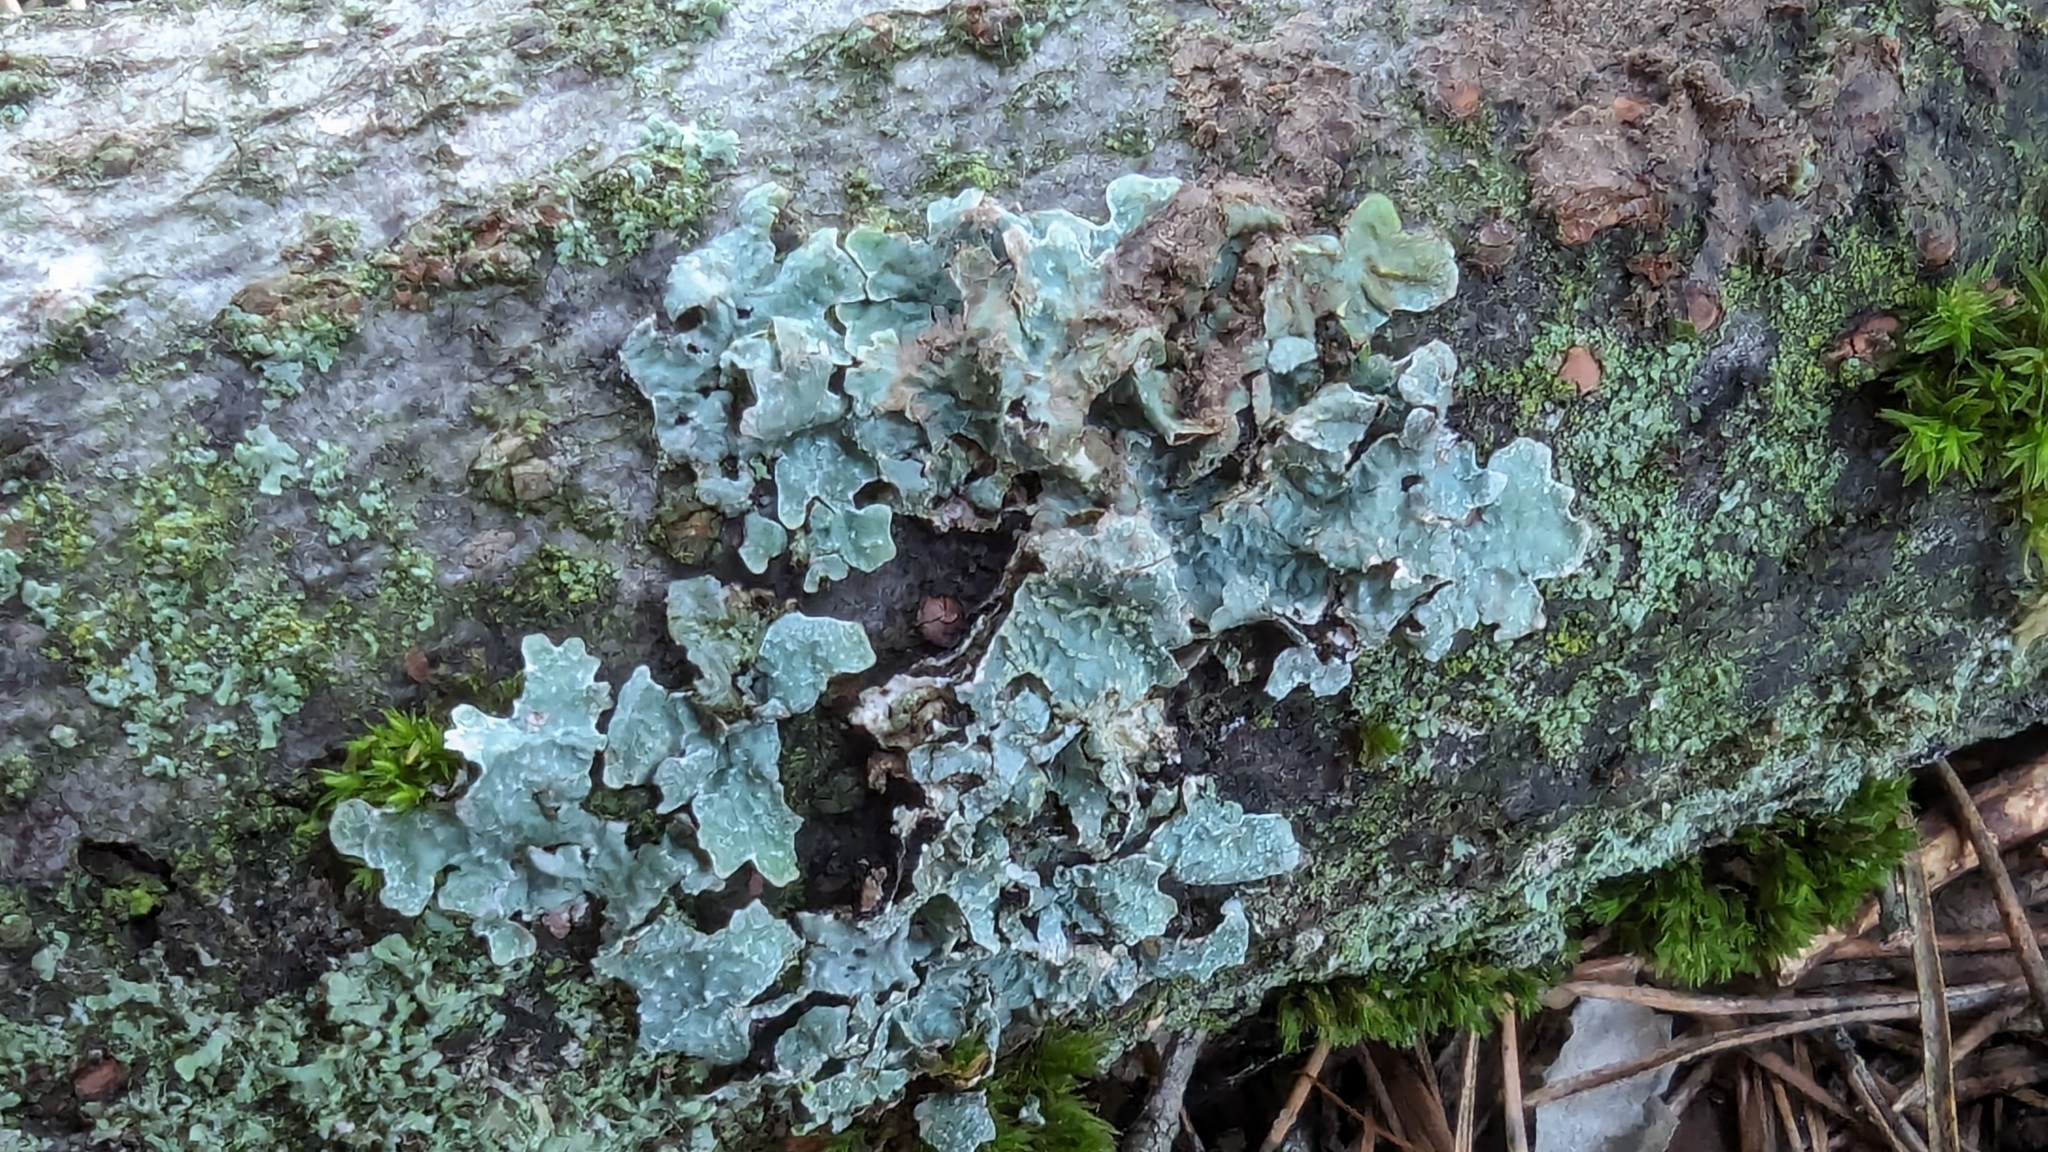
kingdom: Fungi
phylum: Ascomycota
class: Lecanoromycetes
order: Lecanorales
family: Parmeliaceae
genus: Parmelia
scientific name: Parmelia sulcata
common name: Netted shield lichen
